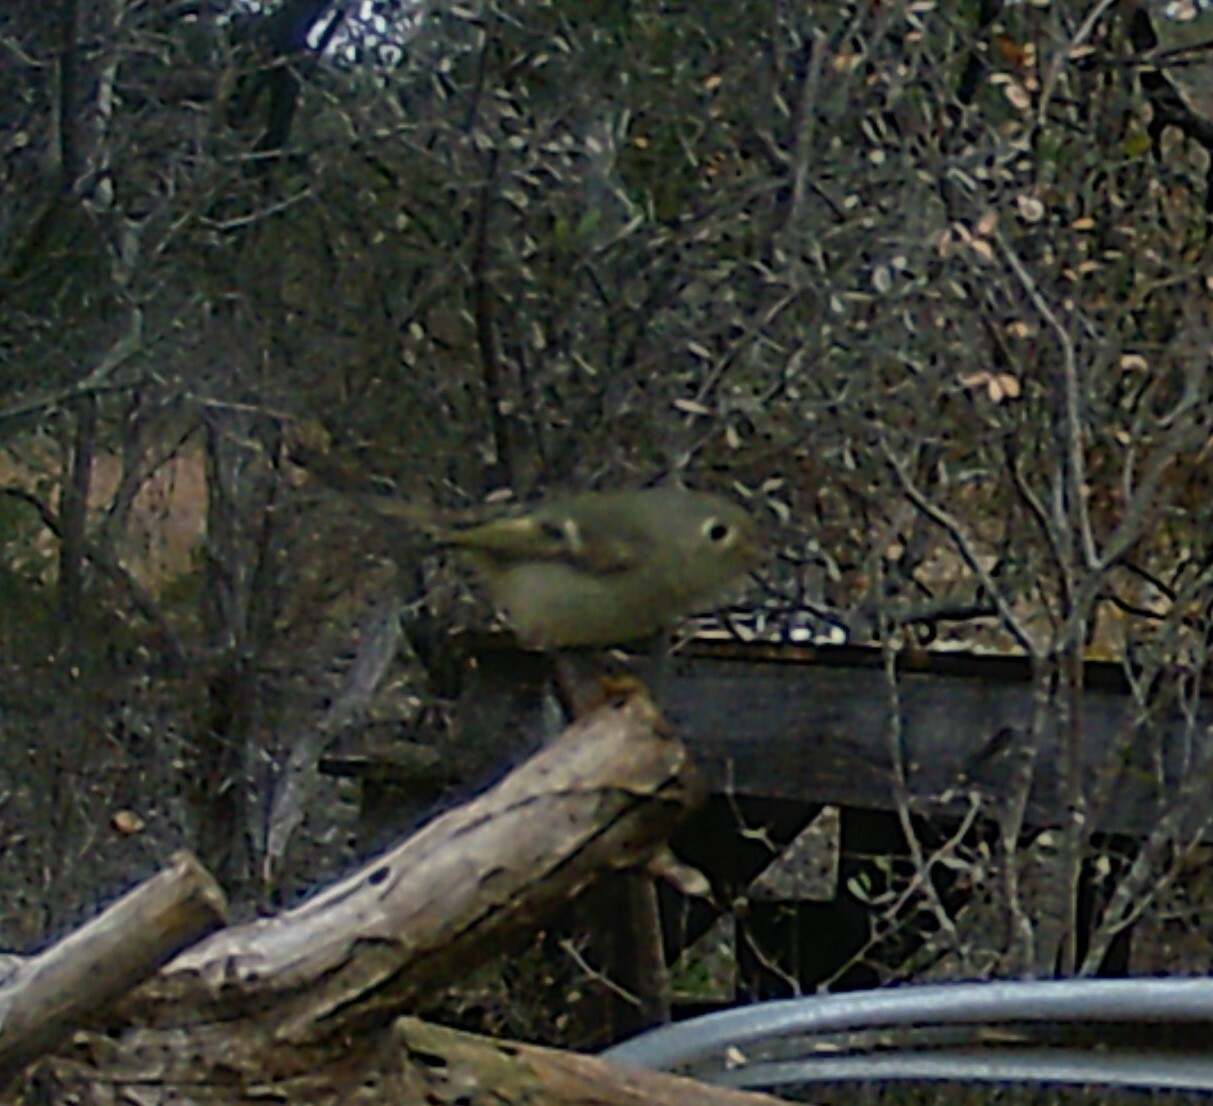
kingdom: Animalia
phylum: Chordata
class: Aves
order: Passeriformes
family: Regulidae
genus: Regulus
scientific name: Regulus calendula
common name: Ruby-crowned kinglet
